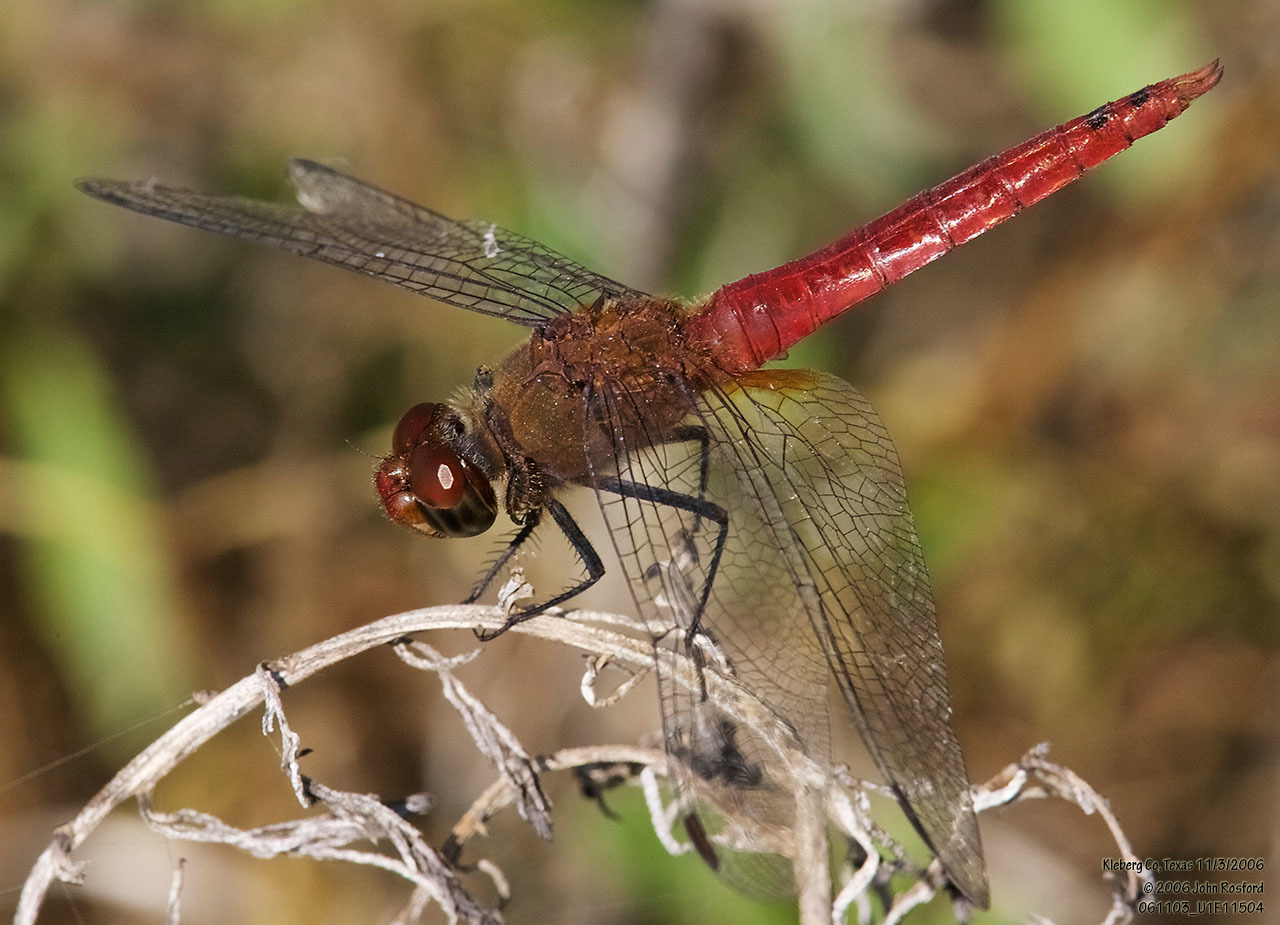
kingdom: Animalia
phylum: Arthropoda
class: Insecta
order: Odonata
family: Libellulidae
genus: Brachymesia
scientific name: Brachymesia furcata
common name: Red-taled pennant
